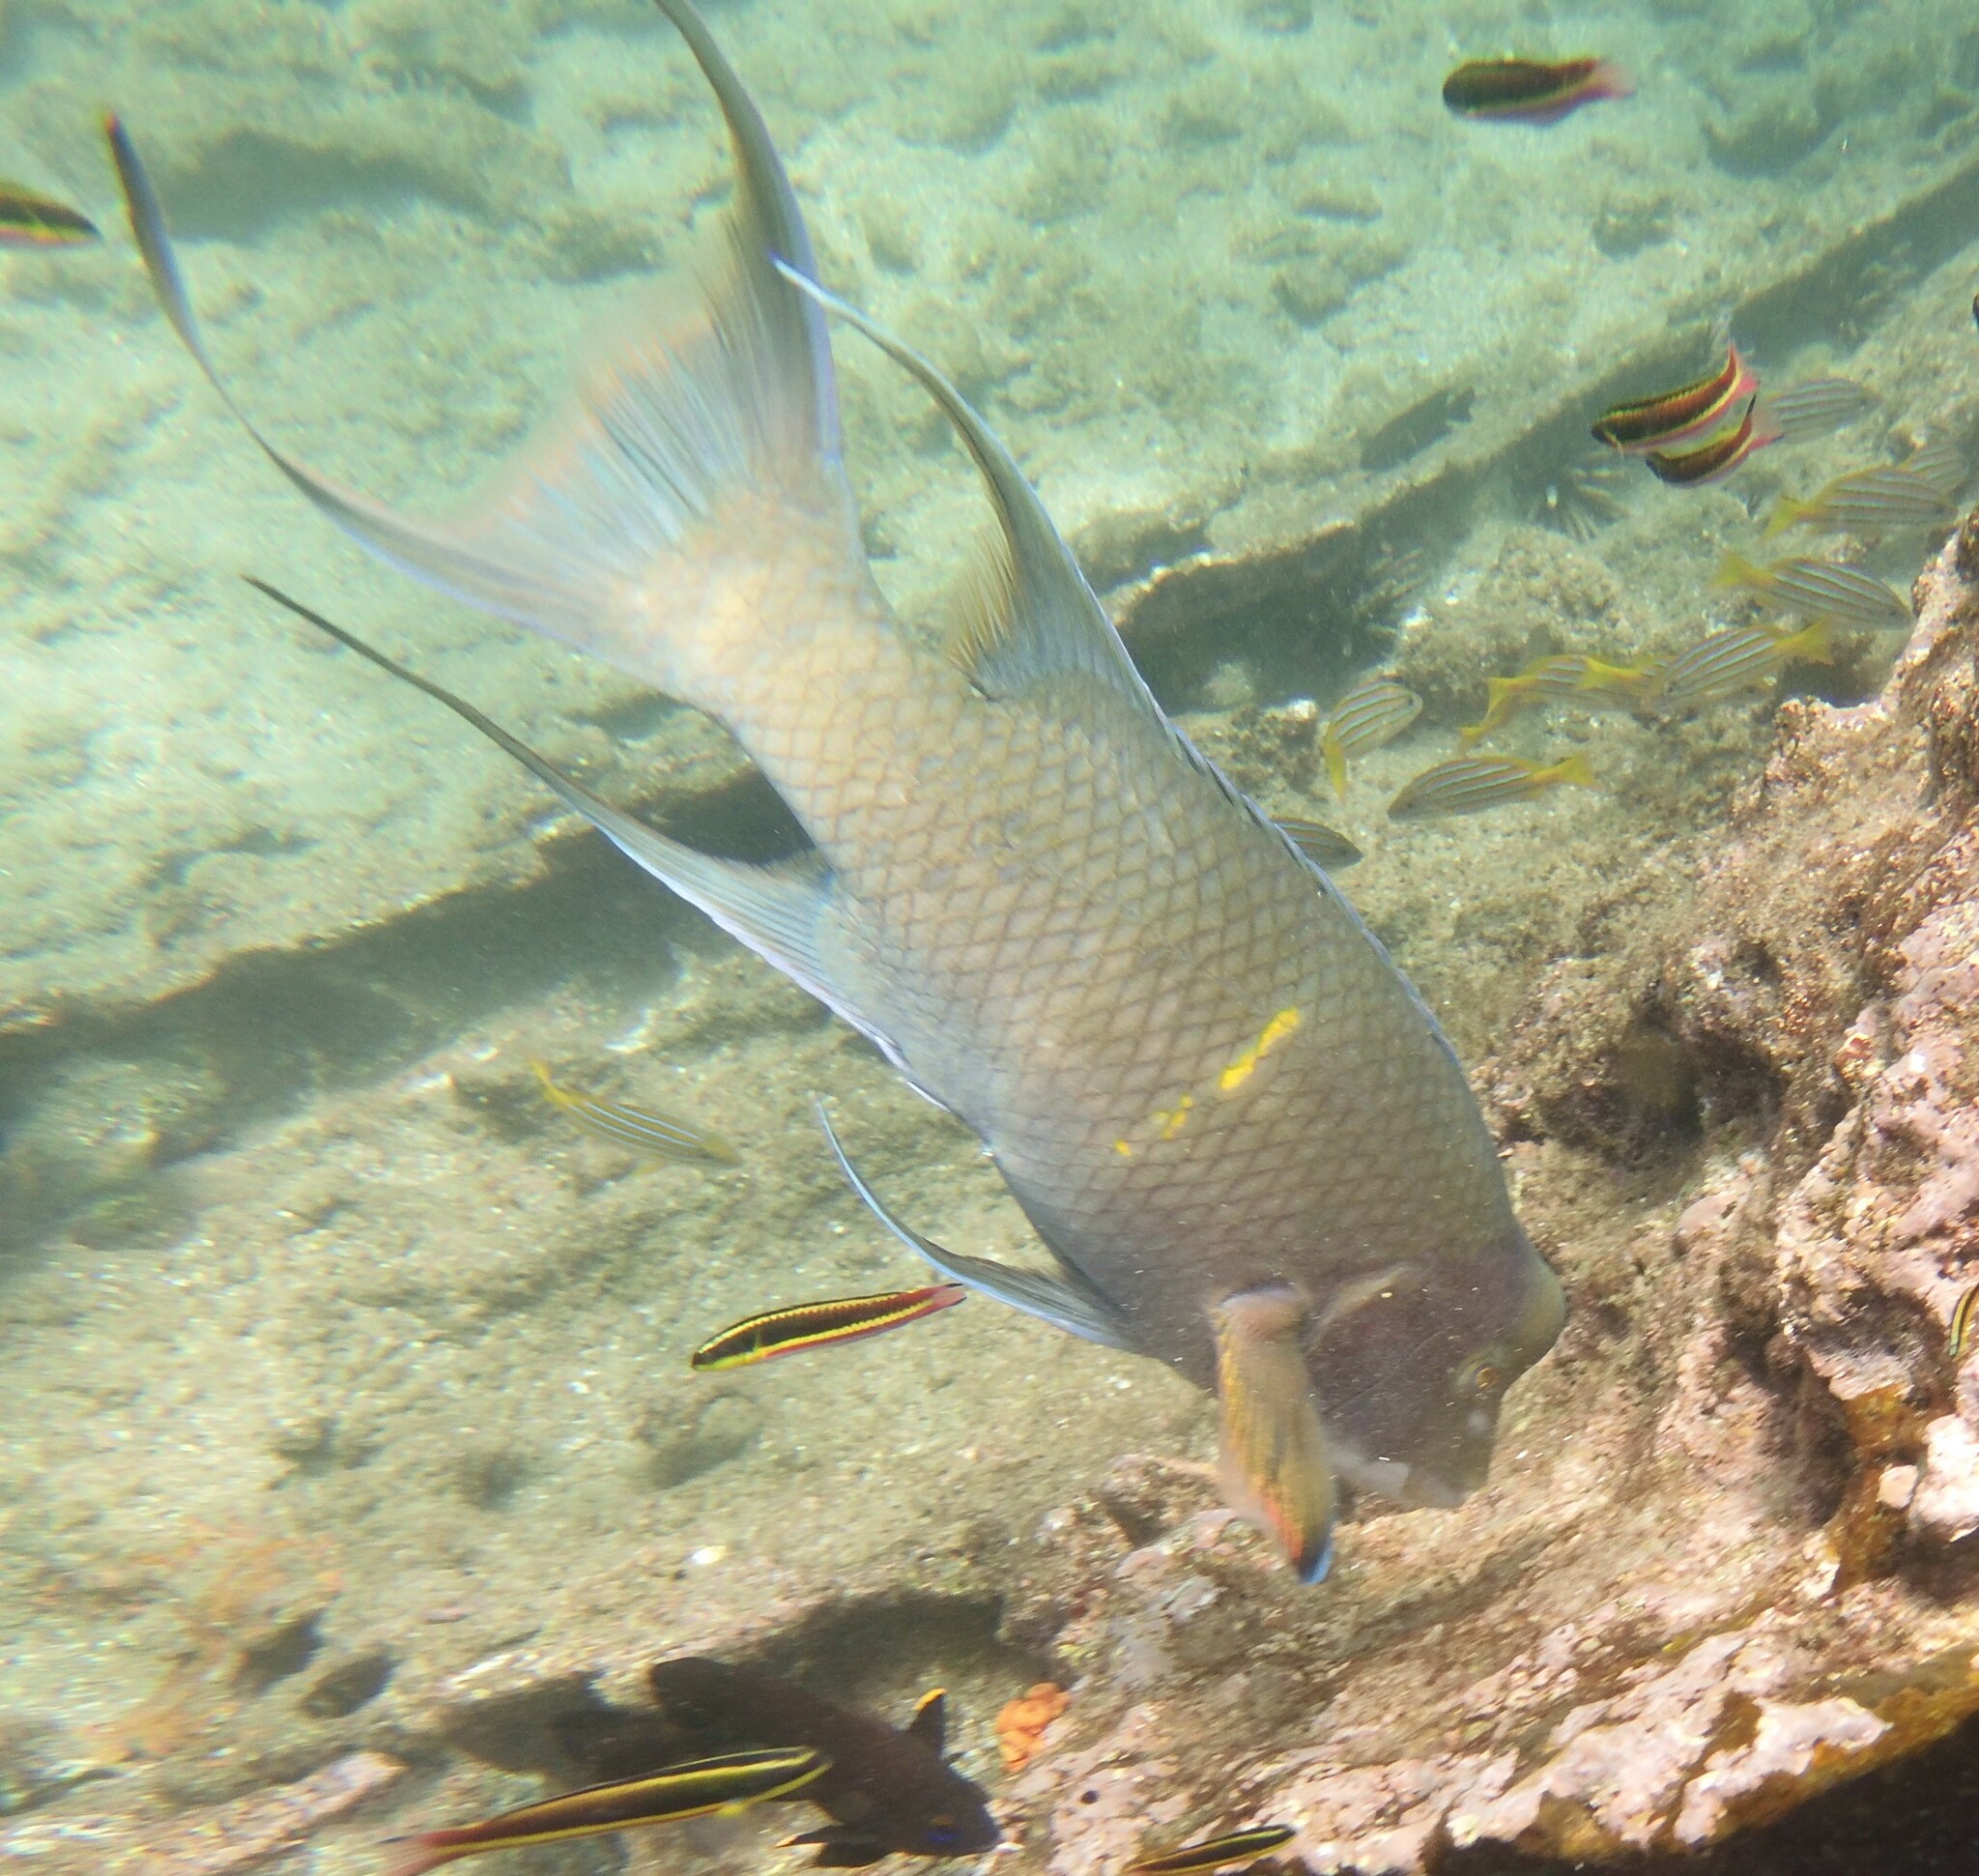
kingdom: Animalia
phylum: Chordata
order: Perciformes
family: Labridae
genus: Bodianus
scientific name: Bodianus diplotaenia
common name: Mexican hogfish
